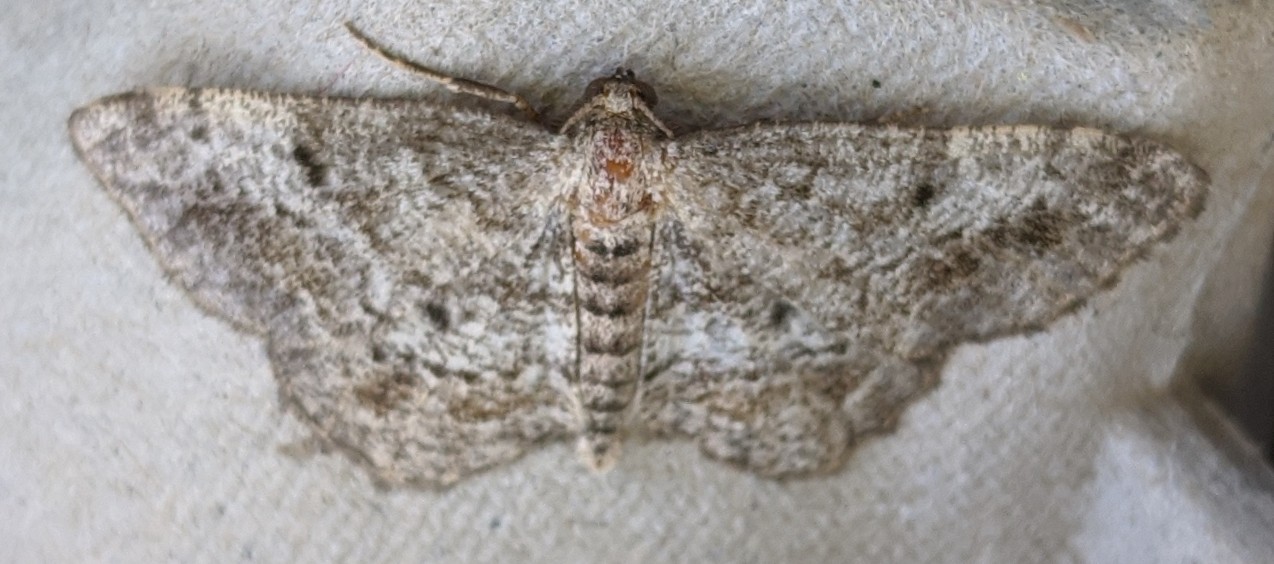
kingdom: Animalia
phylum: Arthropoda
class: Insecta
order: Lepidoptera
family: Geometridae
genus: Hypagyrtis
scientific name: Hypagyrtis piniata
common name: Pine measuringworm
